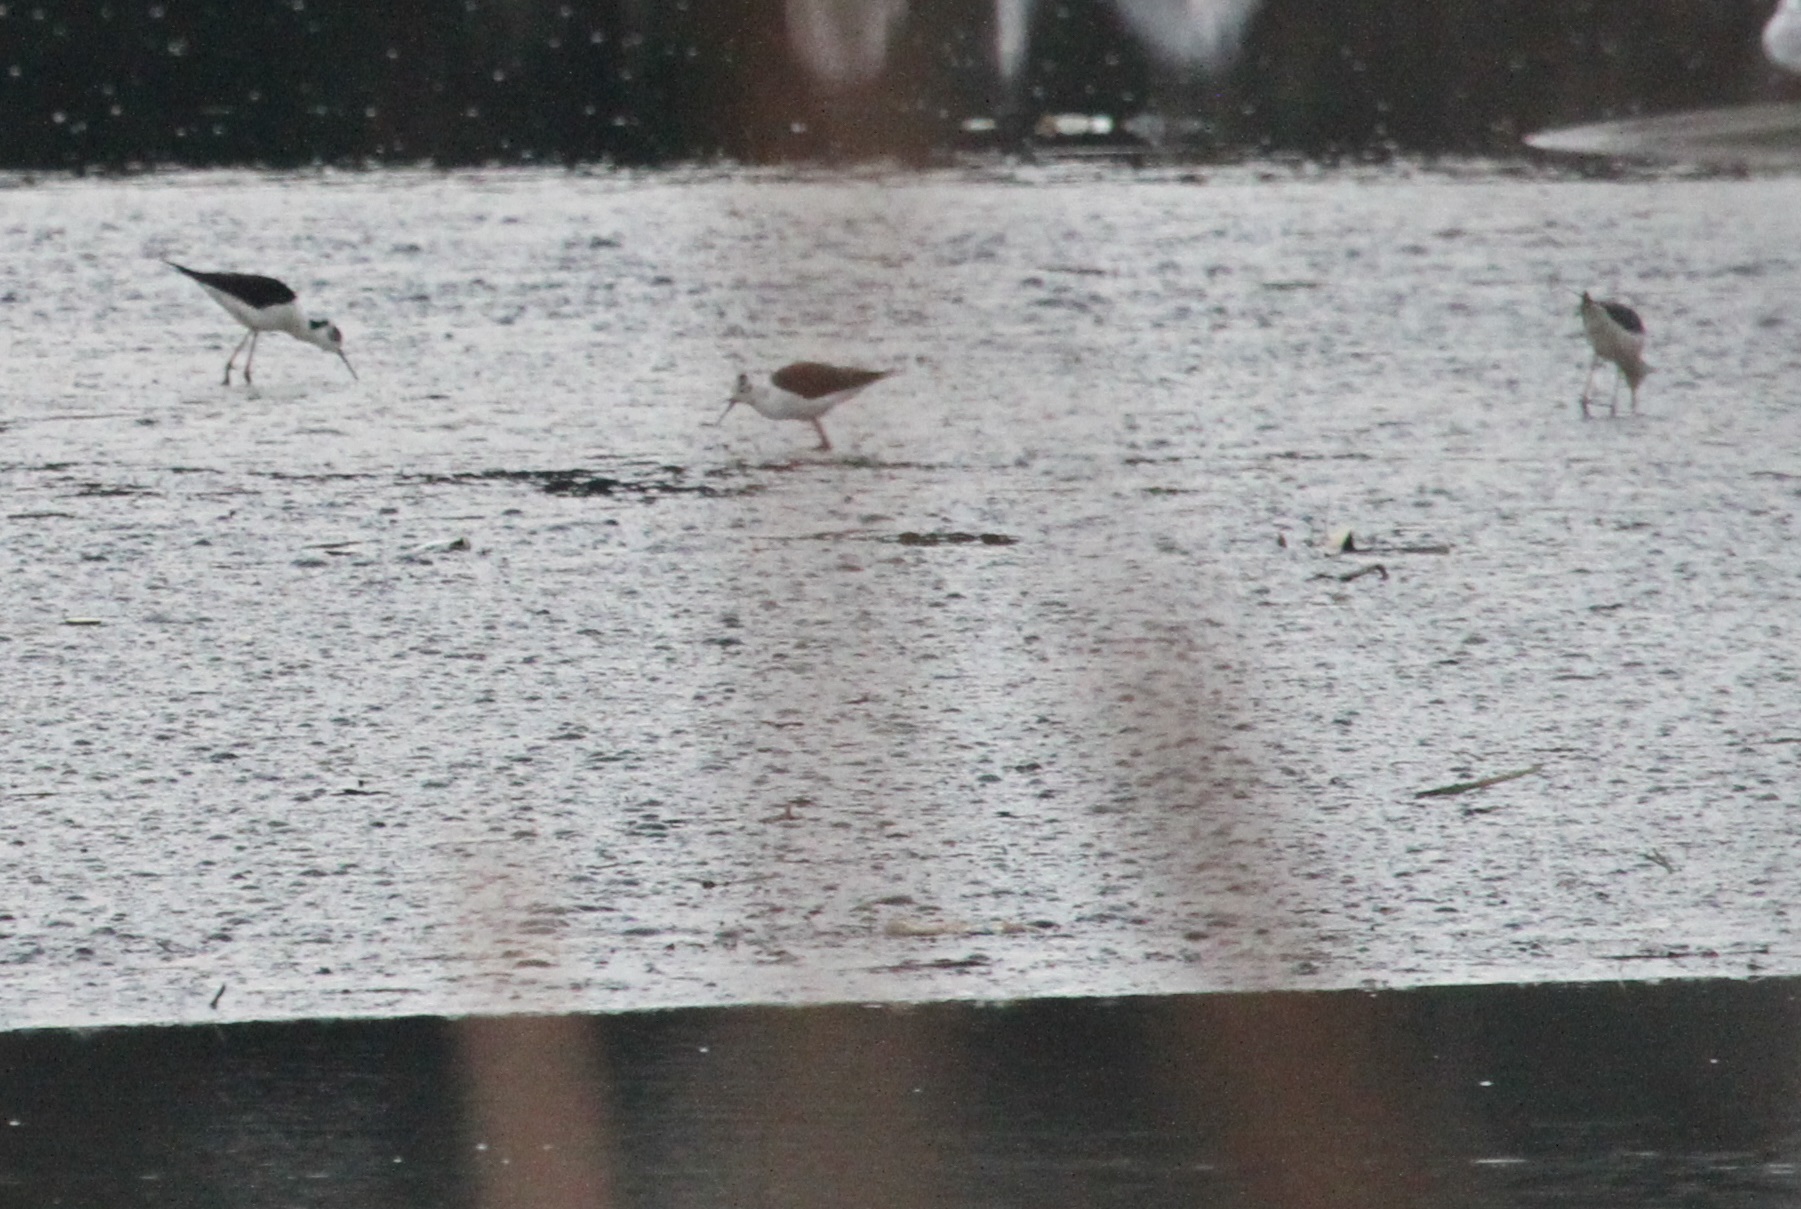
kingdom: Animalia
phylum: Chordata
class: Aves
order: Charadriiformes
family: Recurvirostridae
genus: Himantopus
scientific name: Himantopus himantopus
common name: Black-winged stilt
